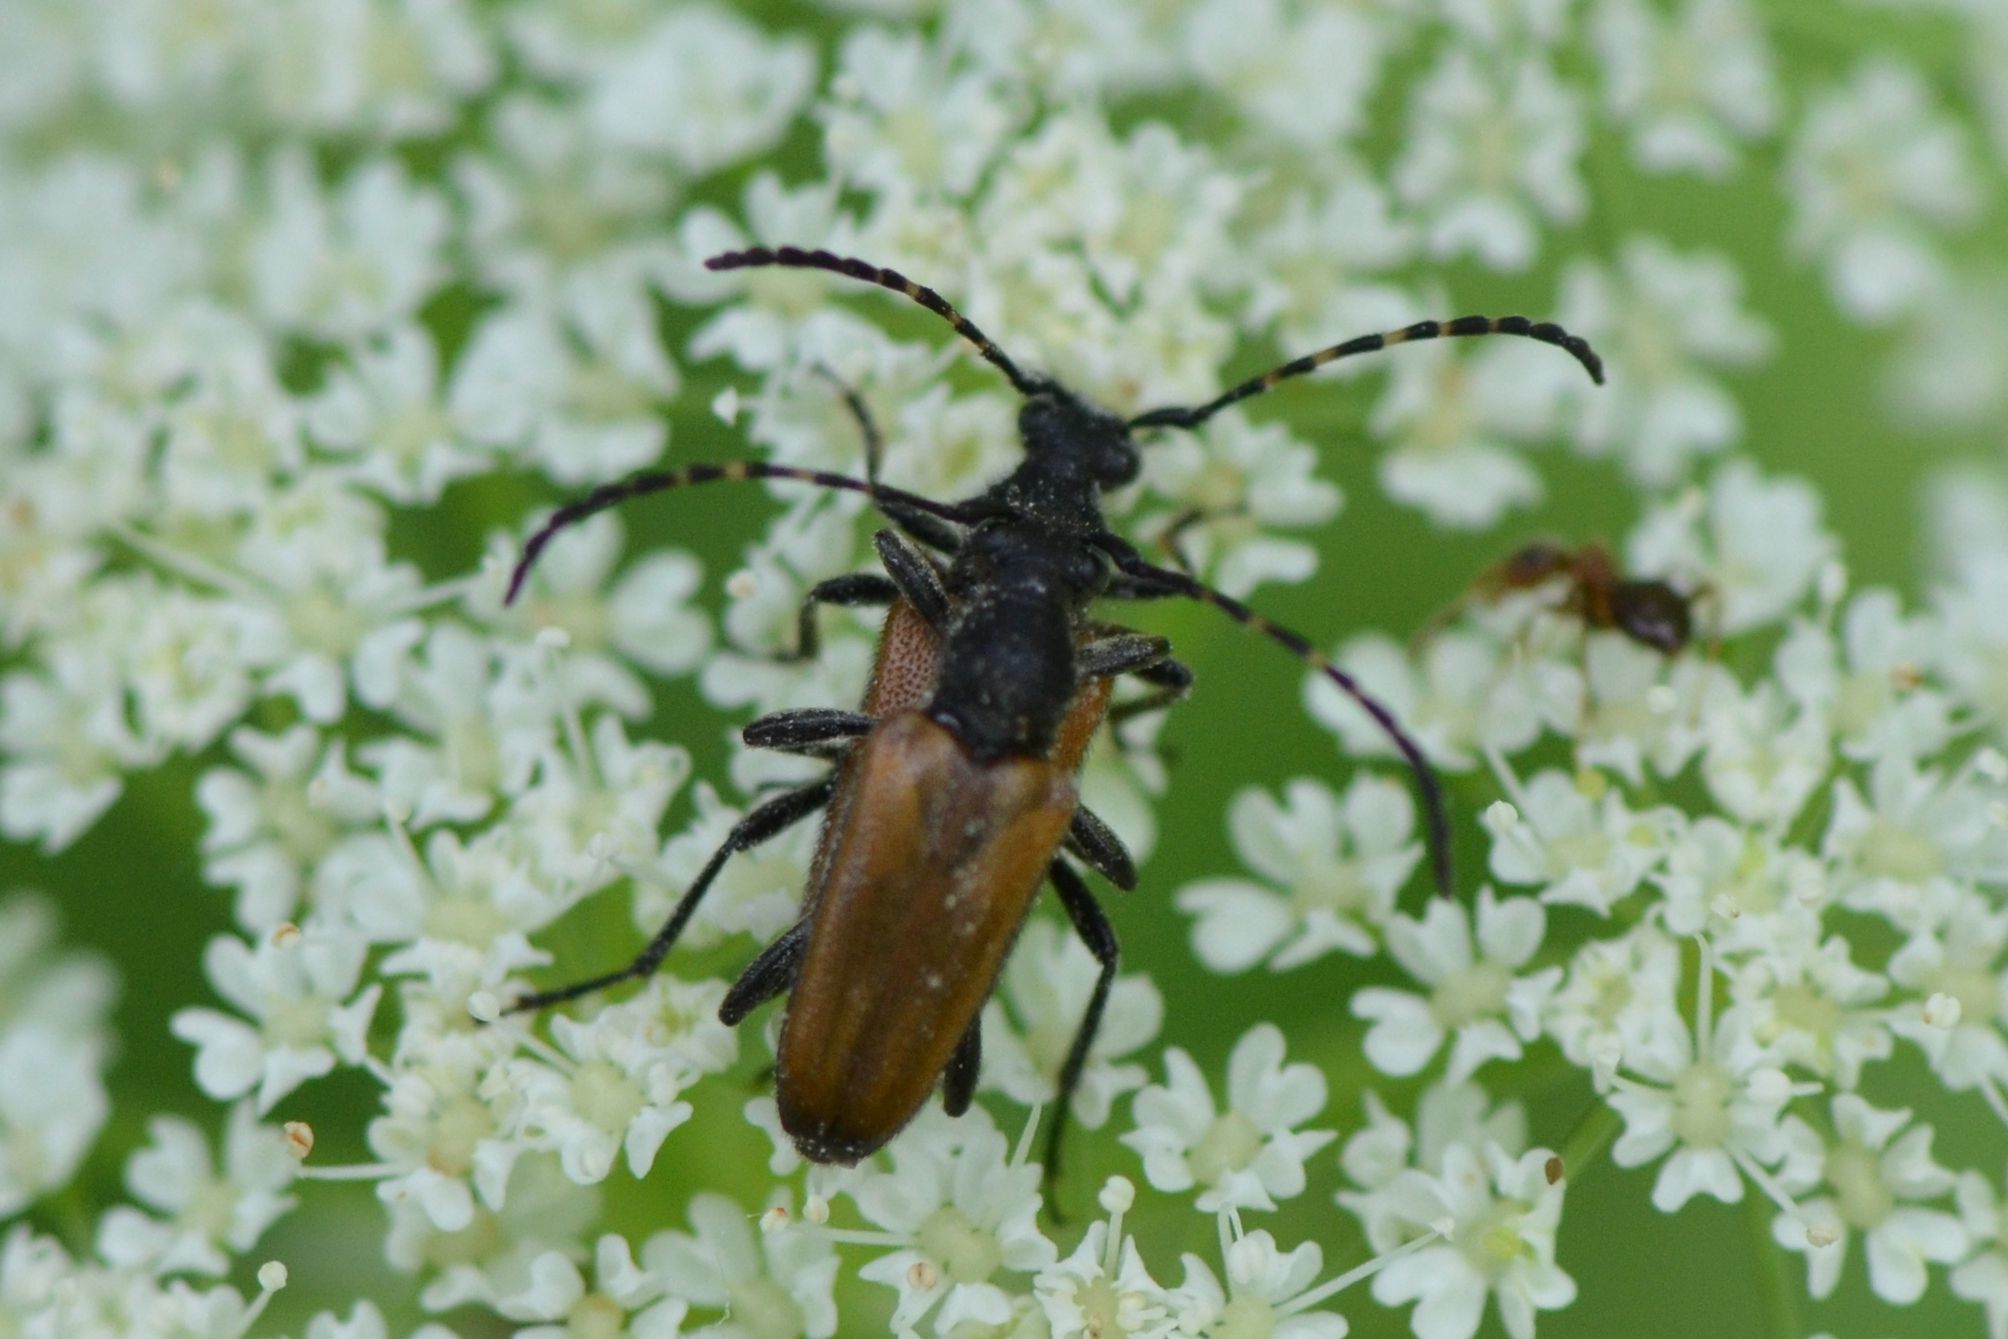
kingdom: Animalia
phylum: Arthropoda
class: Insecta
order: Coleoptera
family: Cerambycidae
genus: Paracorymbia
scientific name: Paracorymbia maculicornis
